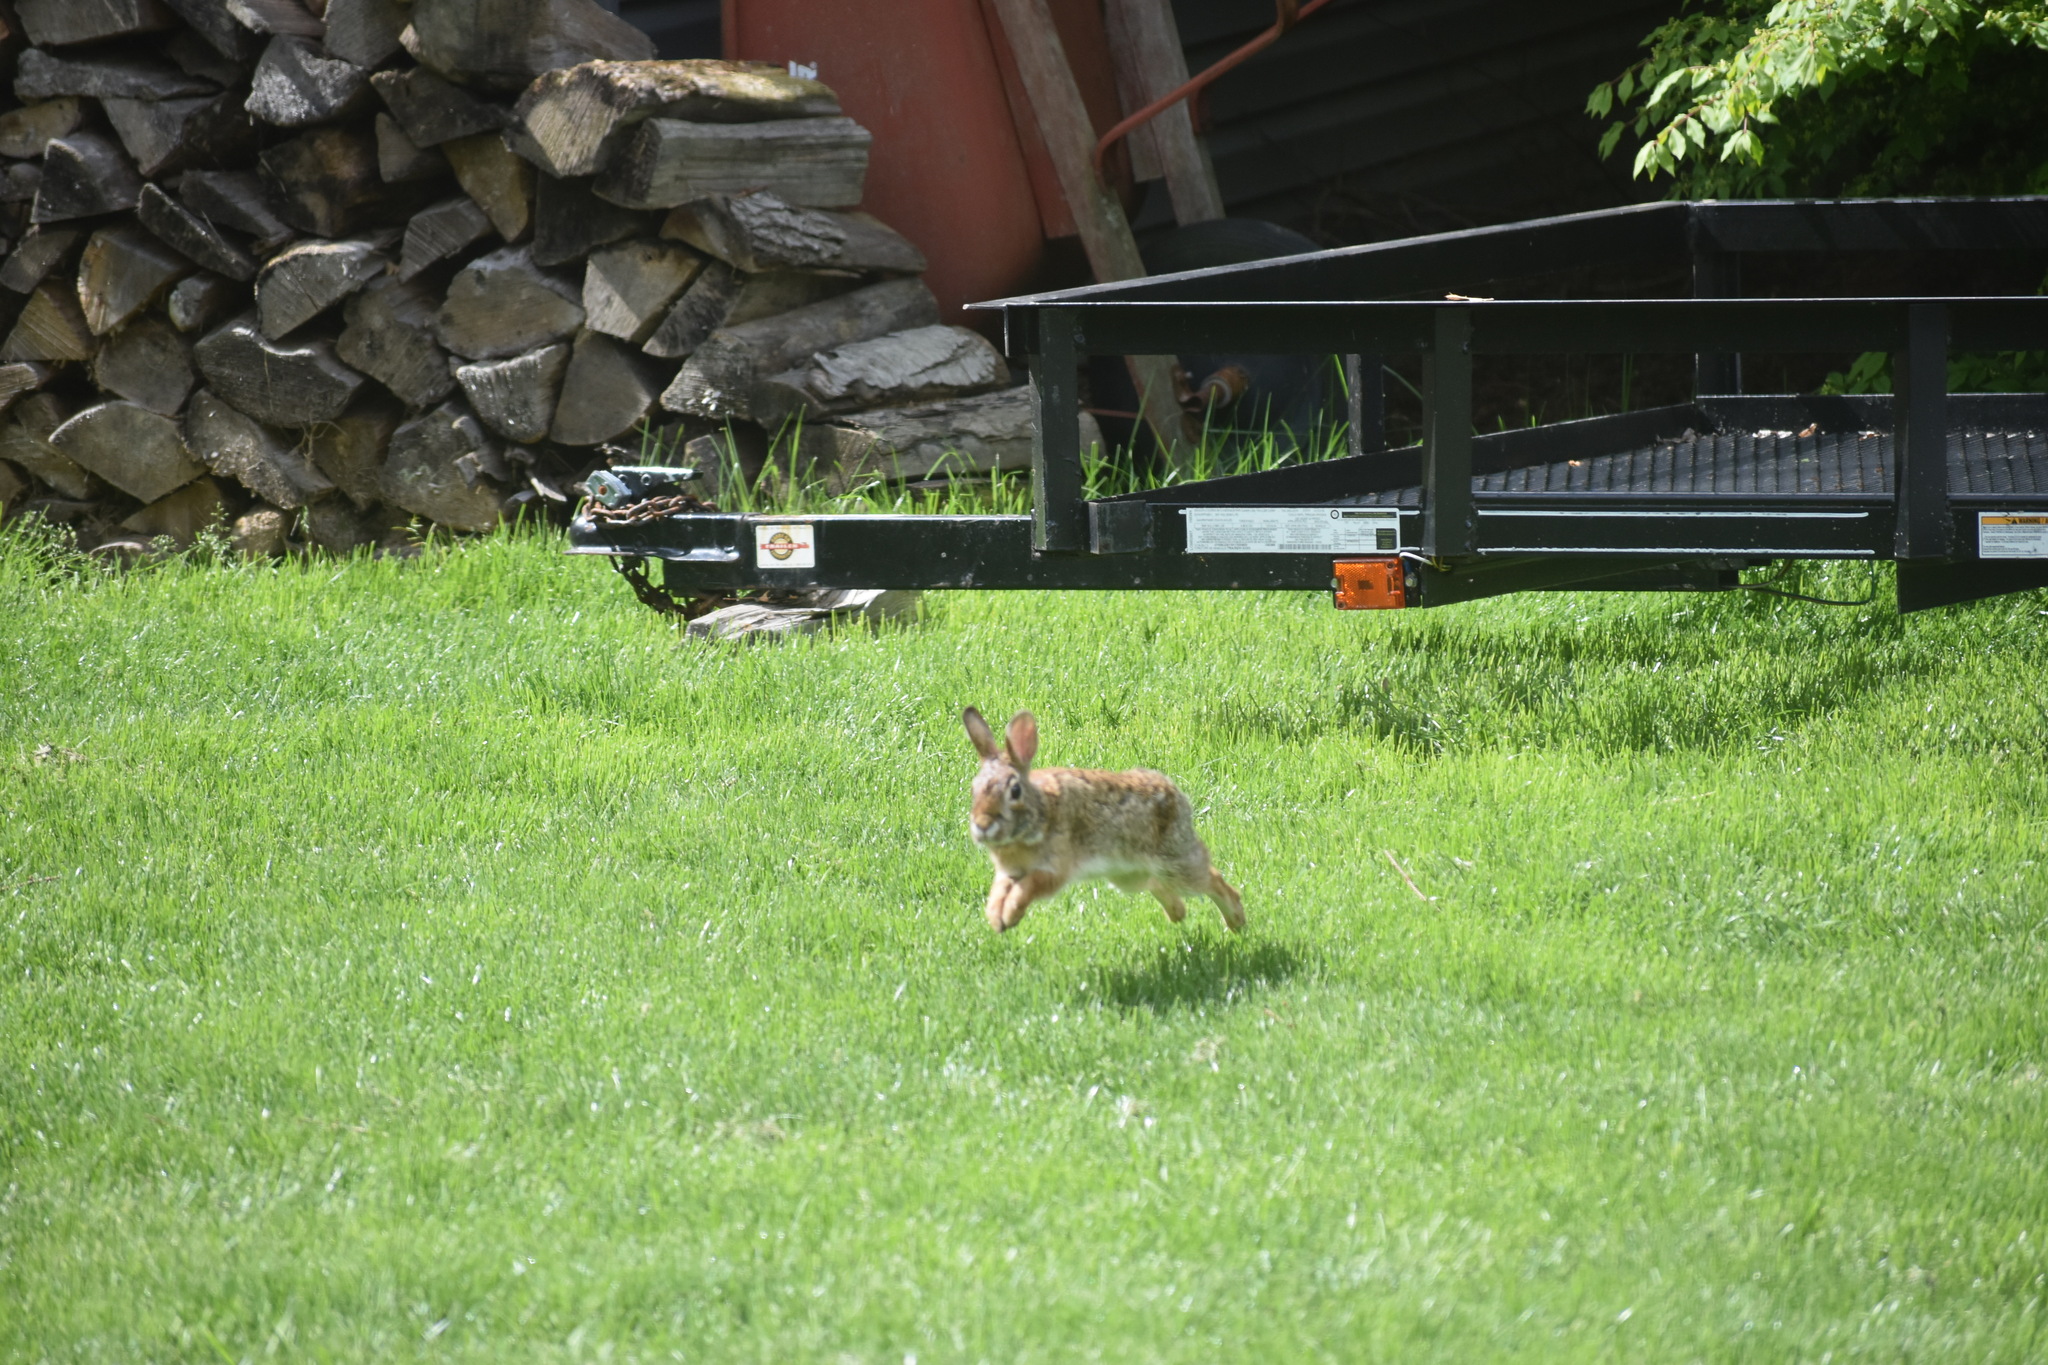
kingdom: Animalia
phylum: Chordata
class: Mammalia
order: Lagomorpha
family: Leporidae
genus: Sylvilagus
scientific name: Sylvilagus floridanus
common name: Eastern cottontail
